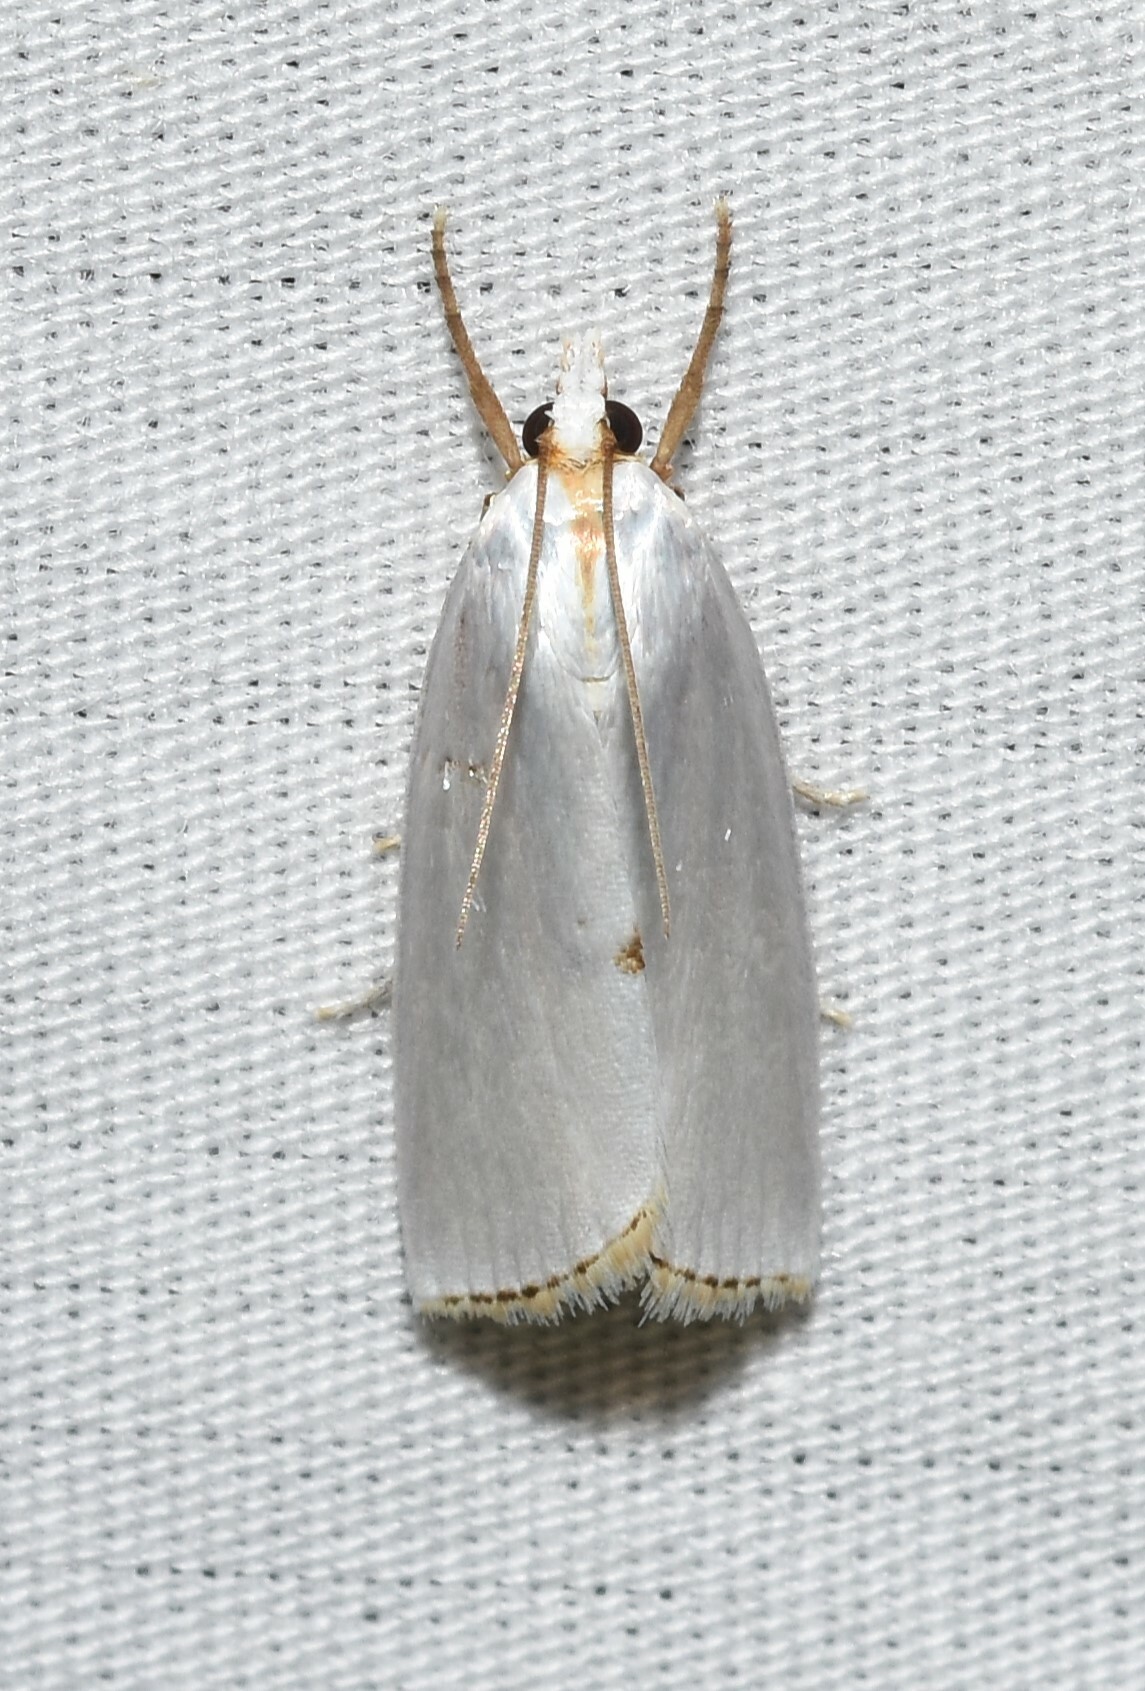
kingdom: Animalia
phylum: Arthropoda
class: Insecta
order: Lepidoptera
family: Crambidae
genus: Argyria
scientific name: Argyria nivalis
